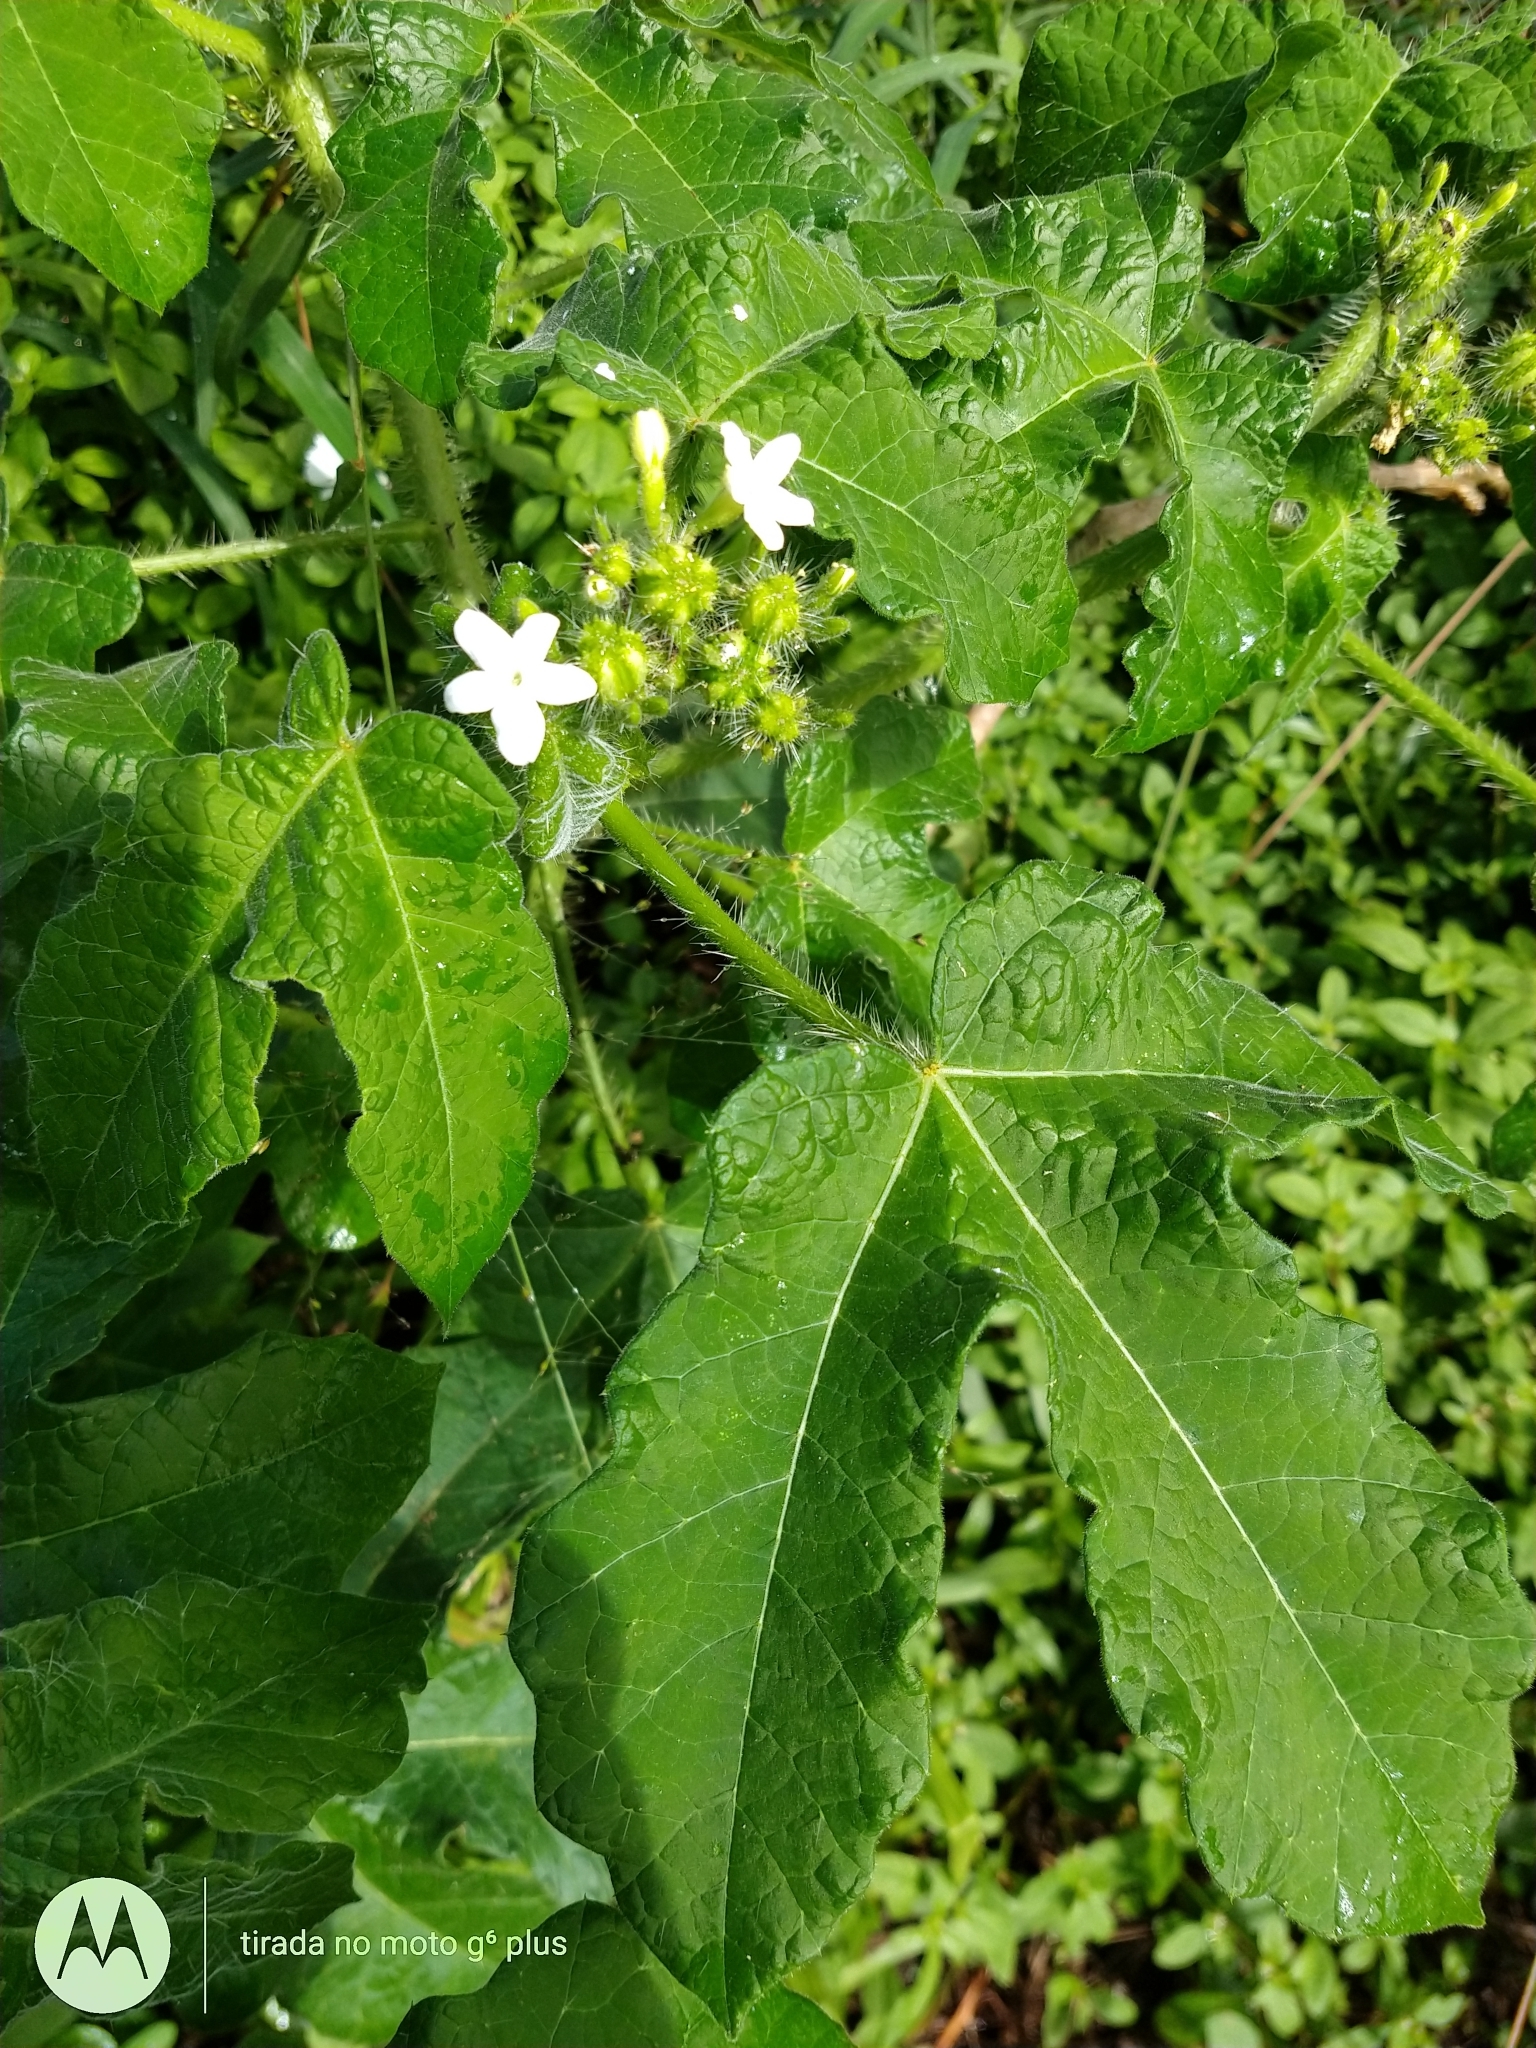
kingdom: Plantae
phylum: Tracheophyta
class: Magnoliopsida
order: Malpighiales
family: Euphorbiaceae
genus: Cnidoscolus
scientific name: Cnidoscolus urens
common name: Bull-nettle
